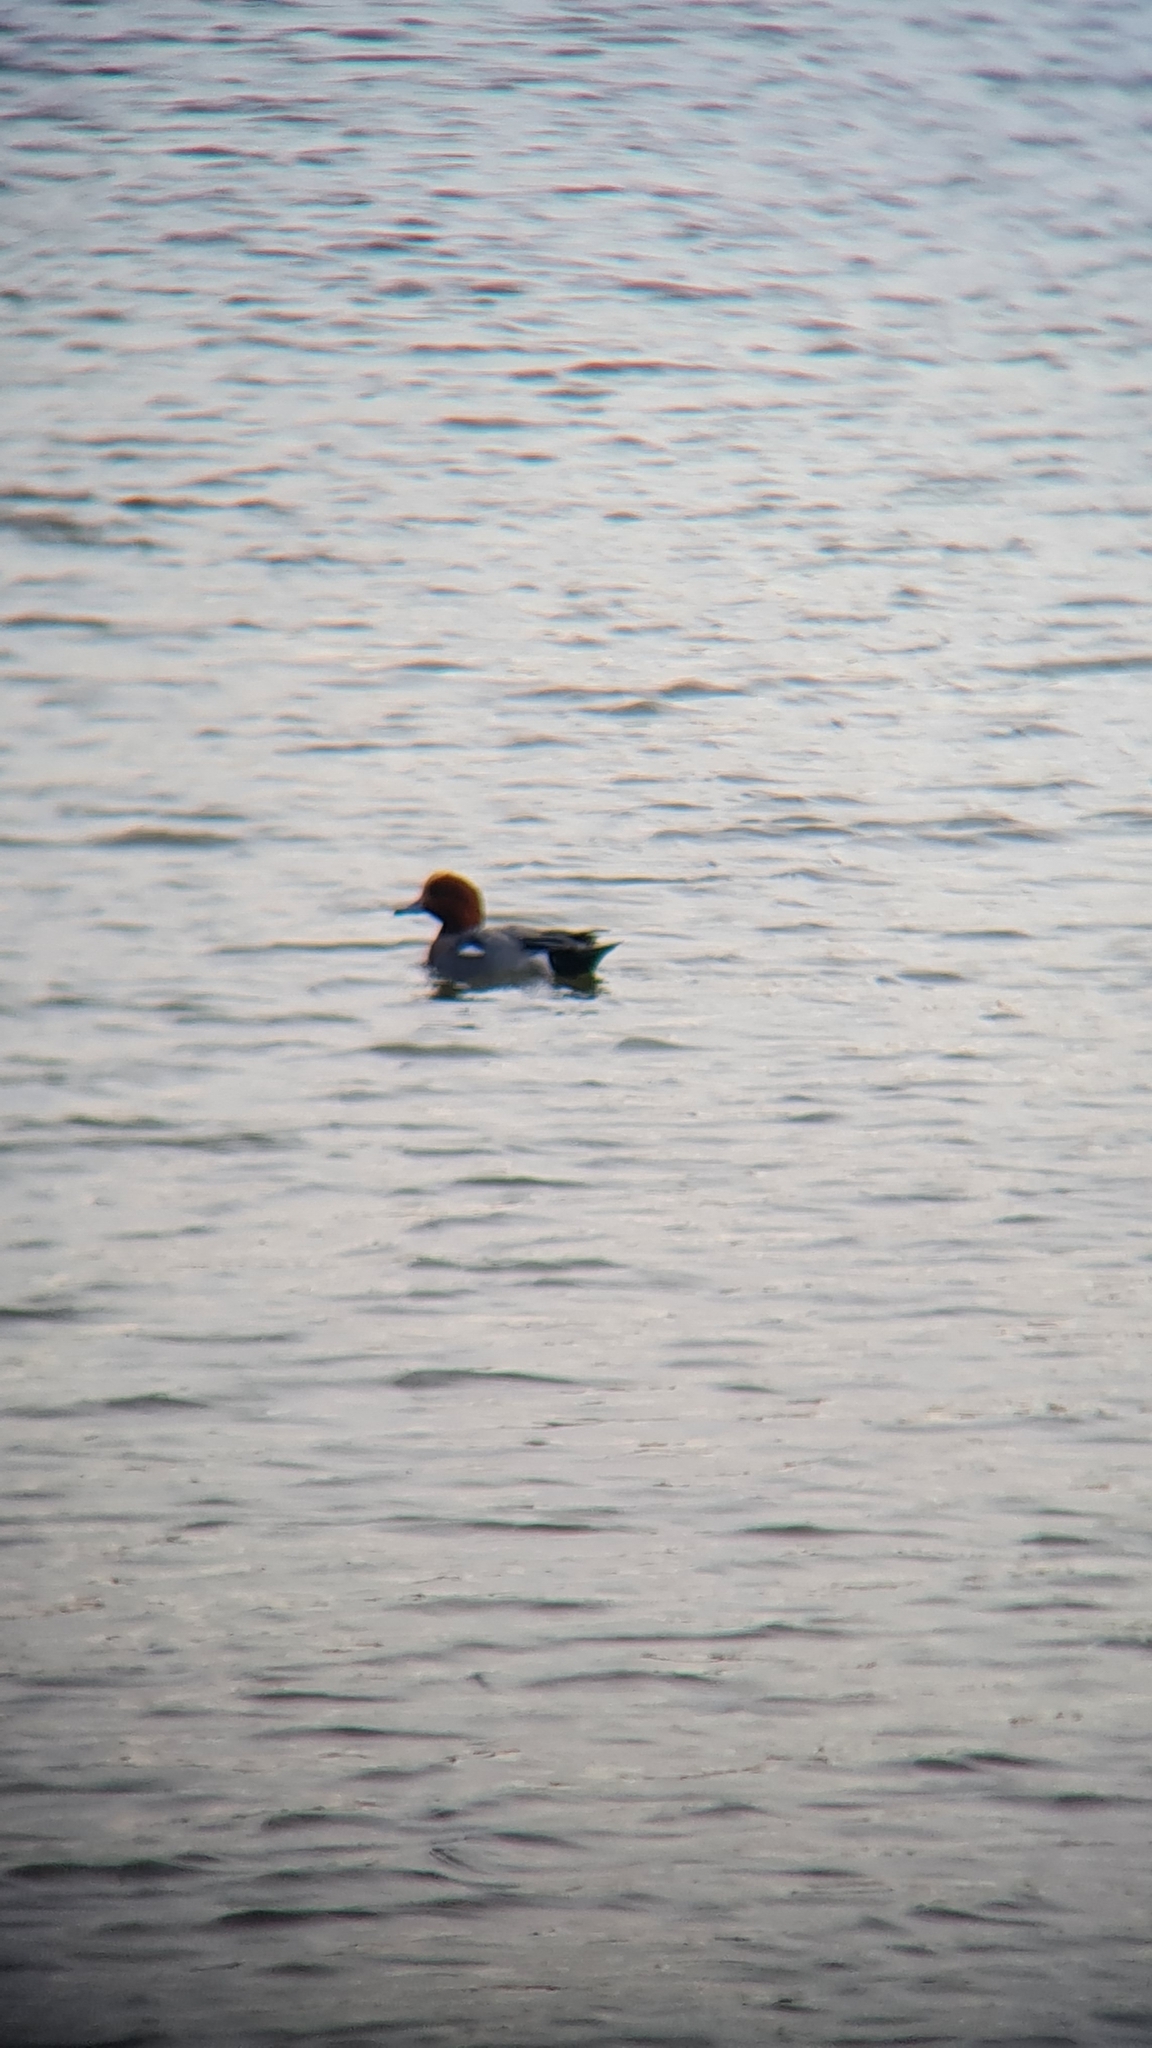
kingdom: Animalia
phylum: Chordata
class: Aves
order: Anseriformes
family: Anatidae
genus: Mareca
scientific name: Mareca penelope
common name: Eurasian wigeon
